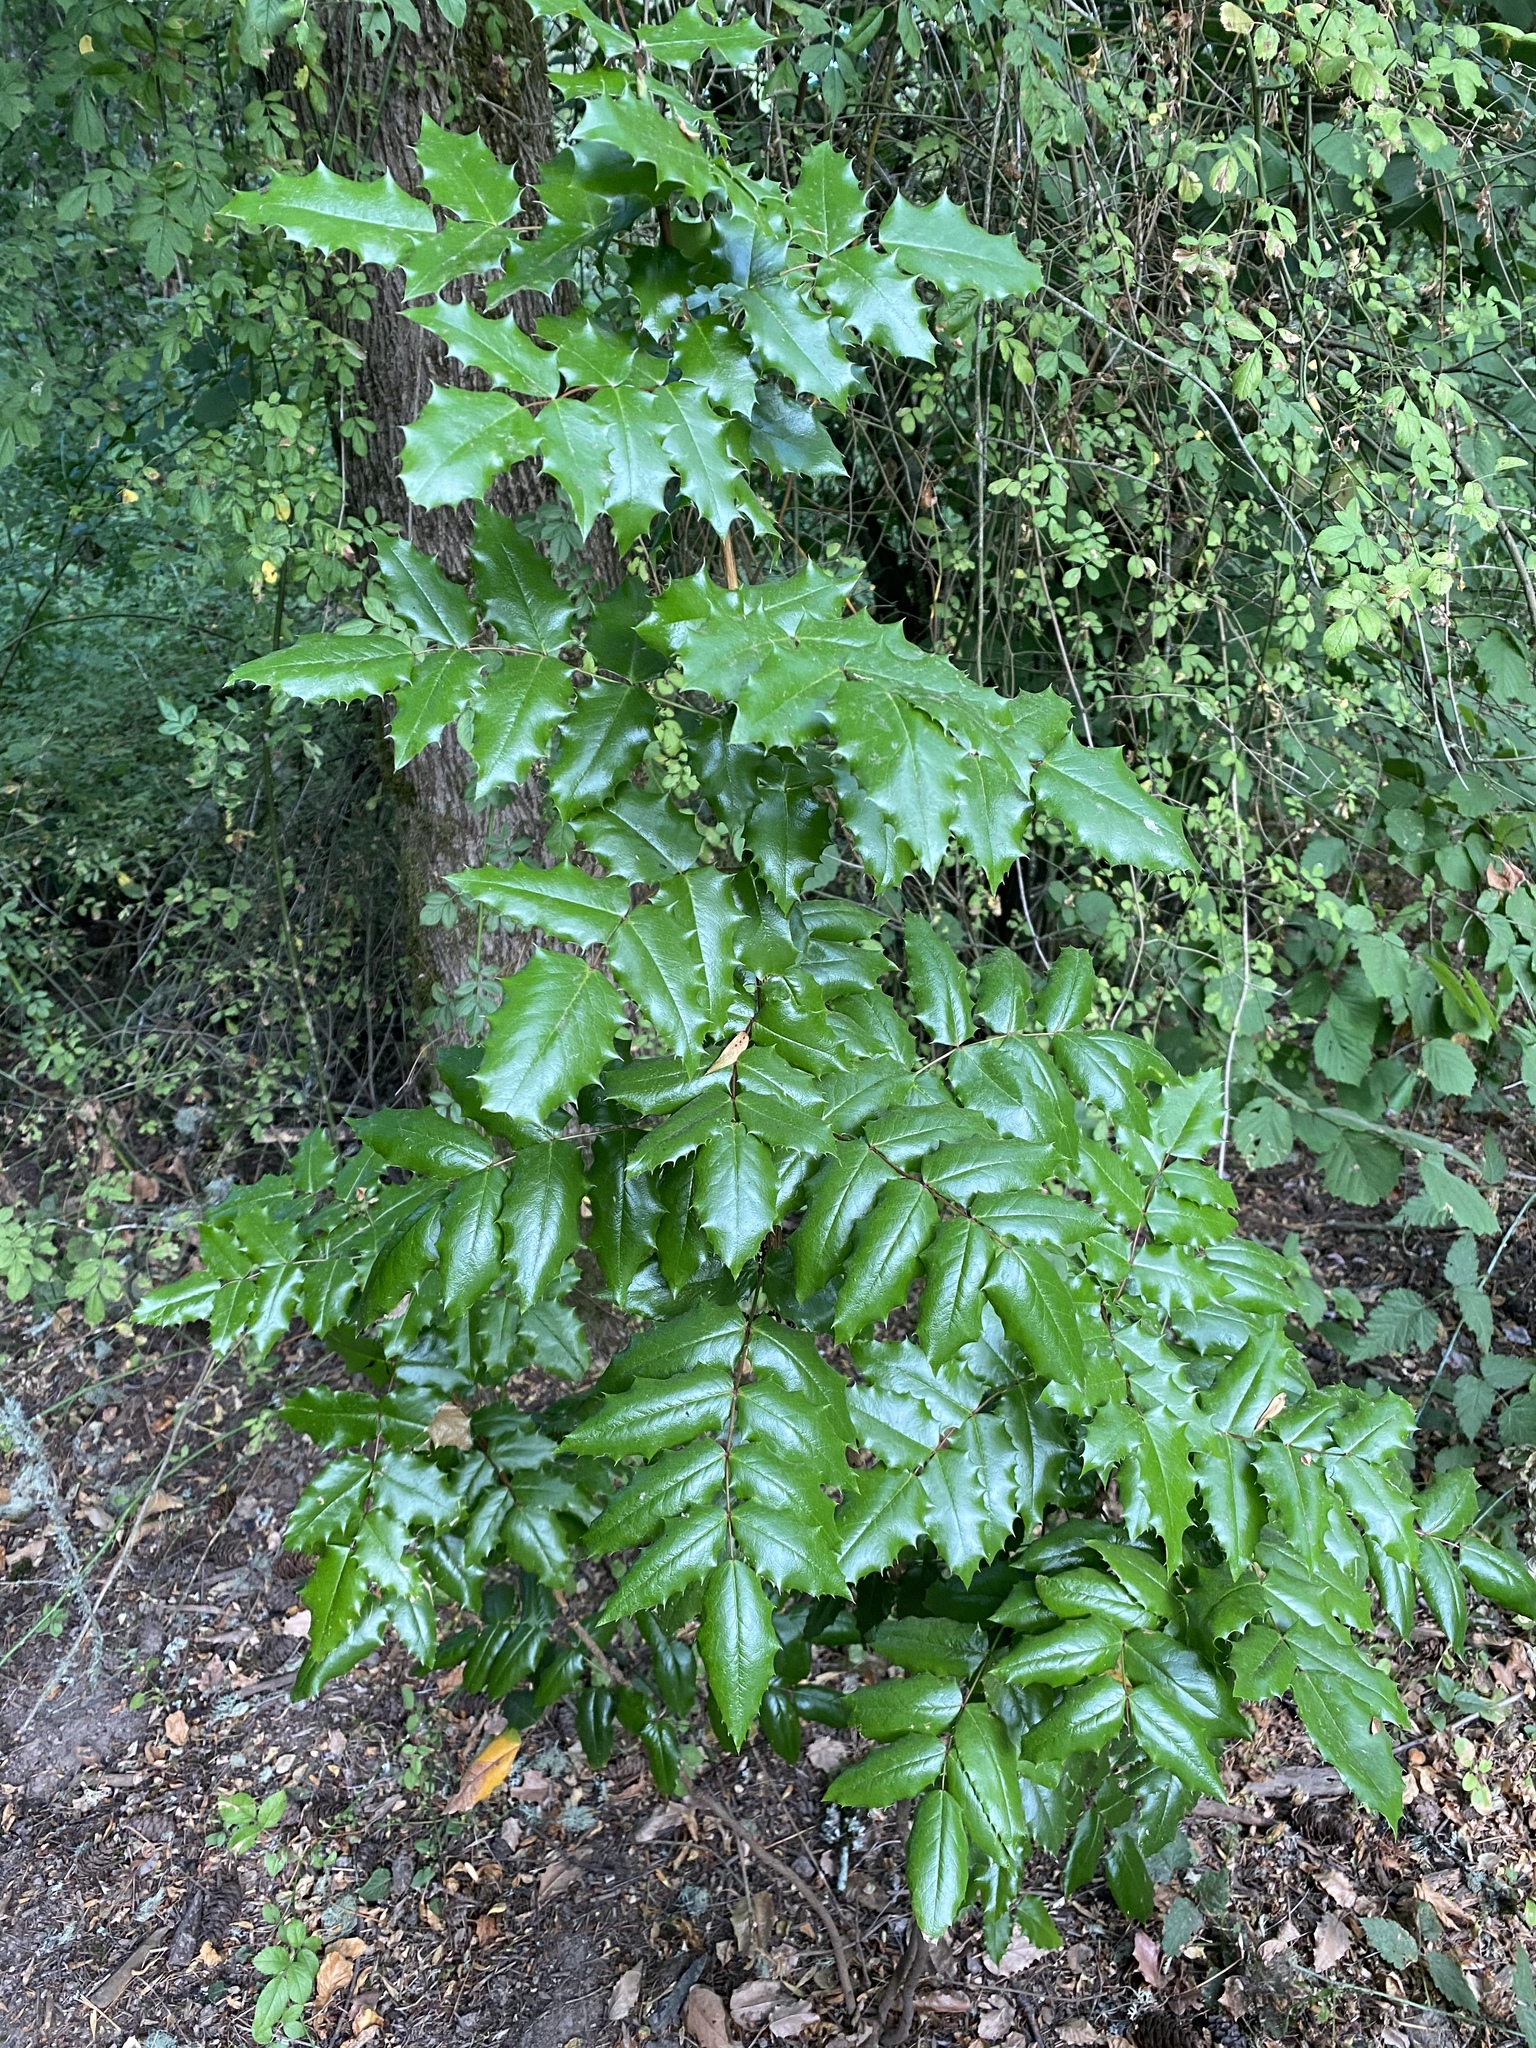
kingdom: Plantae
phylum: Tracheophyta
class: Magnoliopsida
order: Ranunculales
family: Berberidaceae
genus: Mahonia
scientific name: Mahonia aquifolium
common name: Oregon-grape
